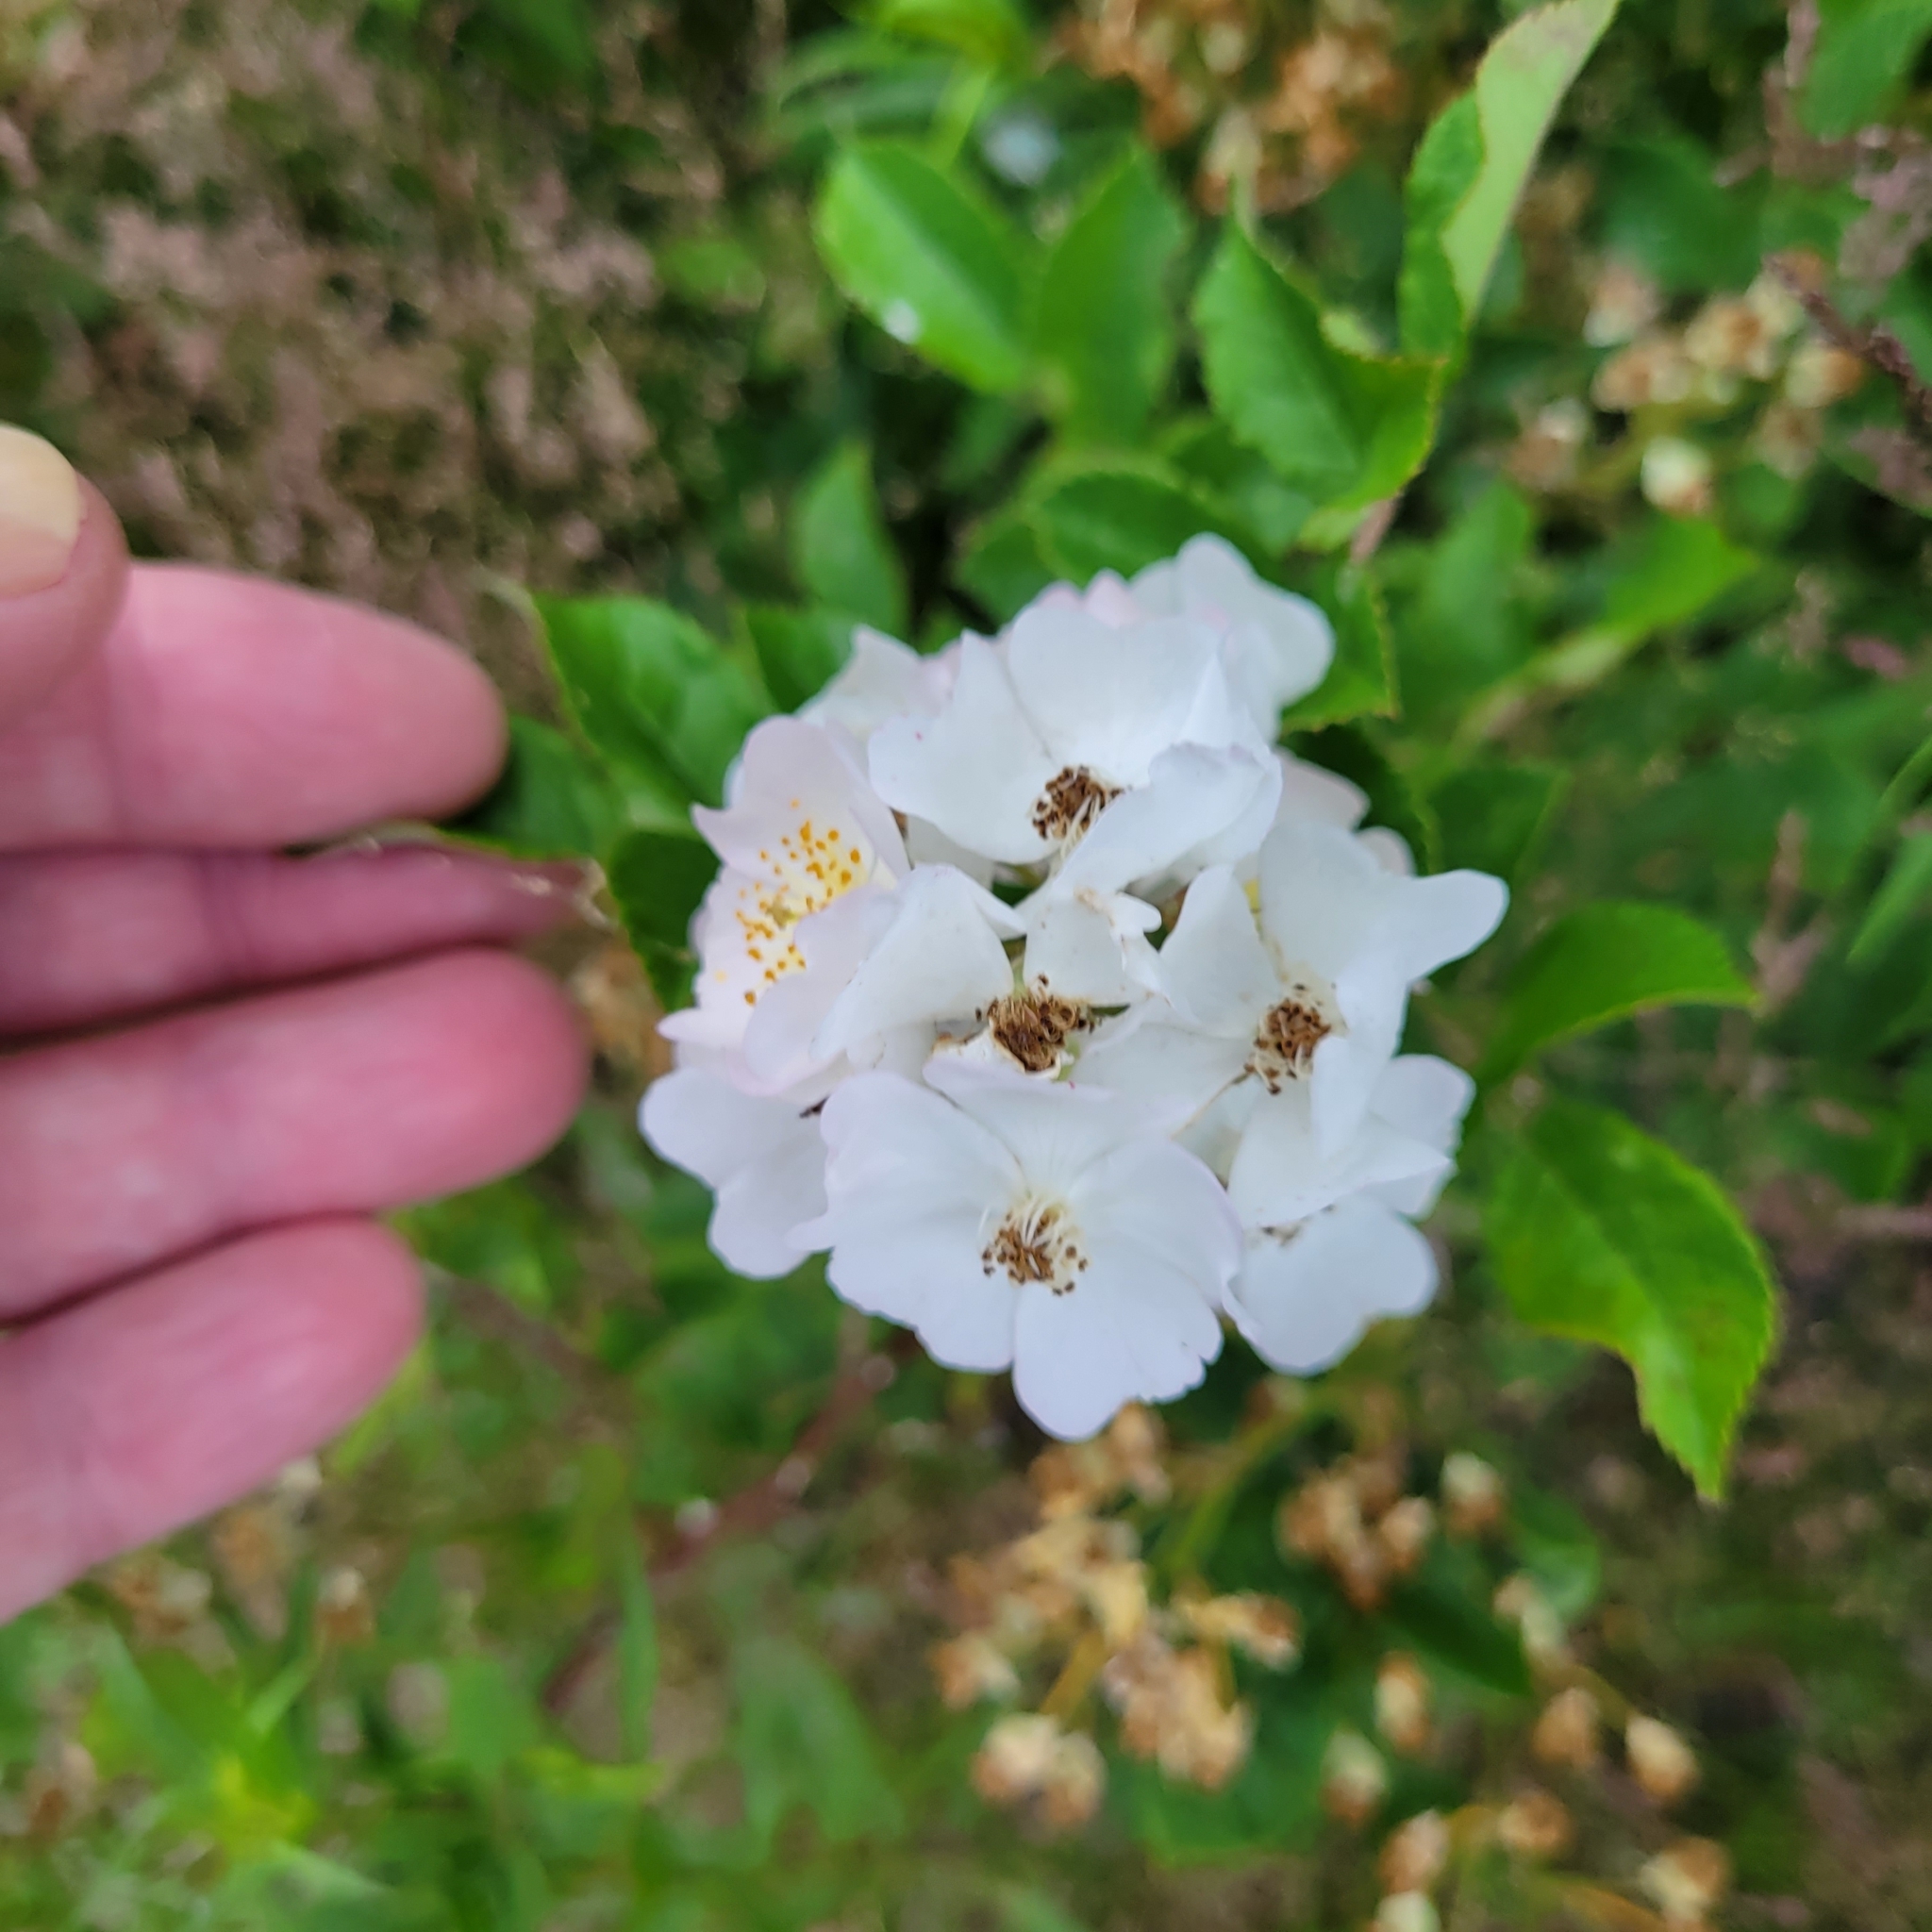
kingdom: Plantae
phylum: Tracheophyta
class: Magnoliopsida
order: Rosales
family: Rosaceae
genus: Rosa
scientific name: Rosa multiflora
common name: Multiflora rose
